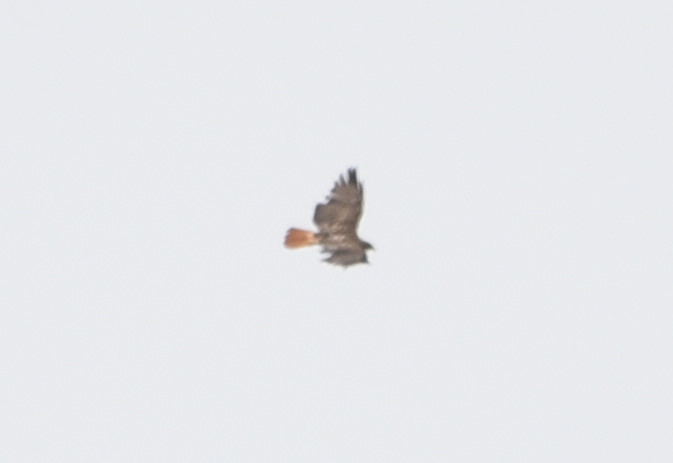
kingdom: Animalia
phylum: Chordata
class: Aves
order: Accipitriformes
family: Accipitridae
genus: Buteo
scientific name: Buteo jamaicensis
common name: Red-tailed hawk
